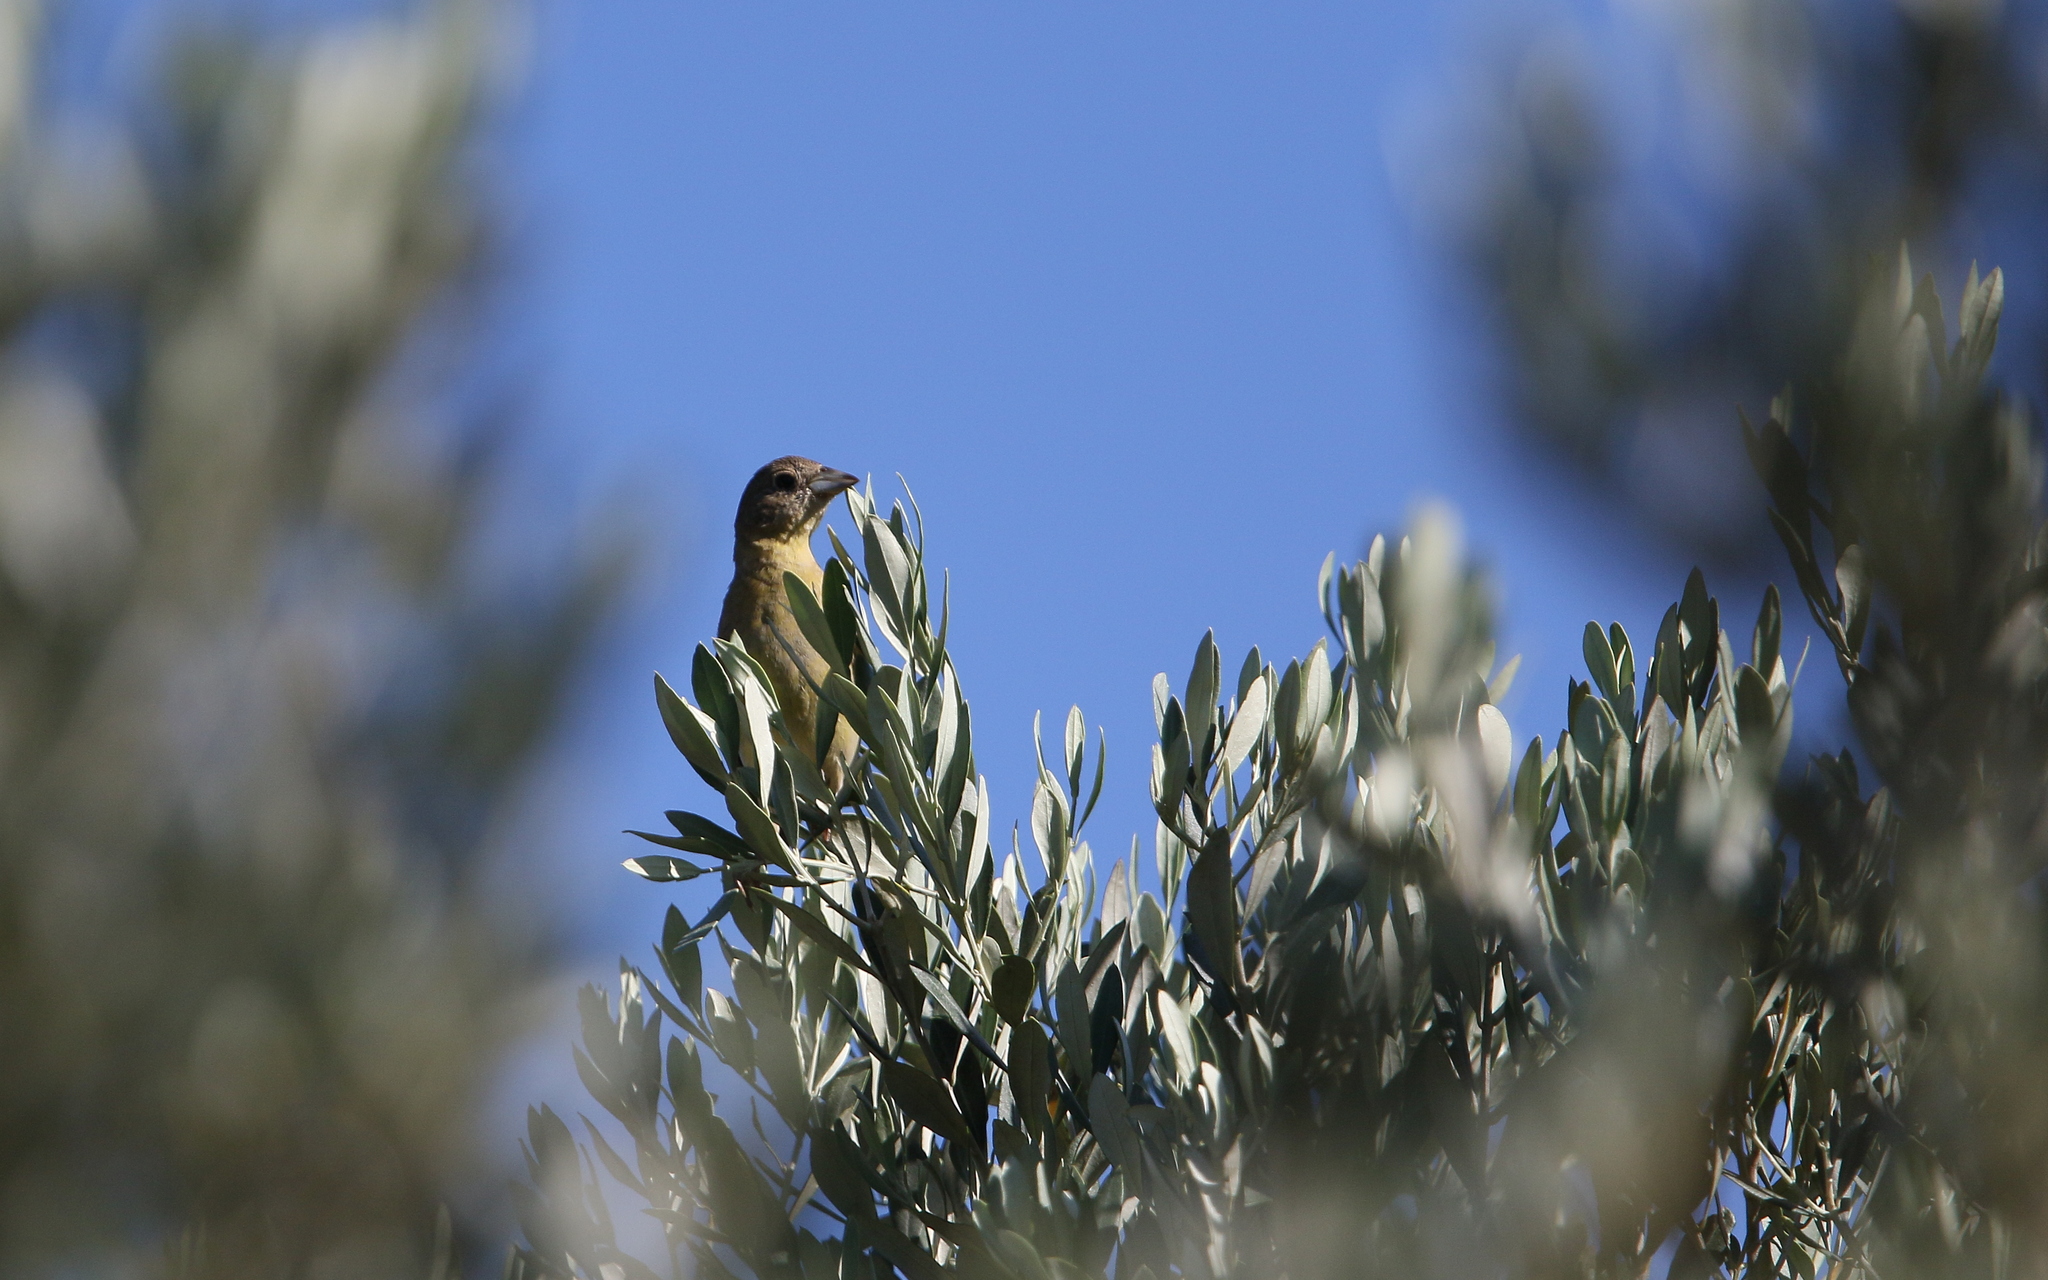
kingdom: Animalia
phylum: Chordata
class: Aves
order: Passeriformes
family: Emberizidae
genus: Emberiza
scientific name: Emberiza melanocephala
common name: Black-headed bunting
